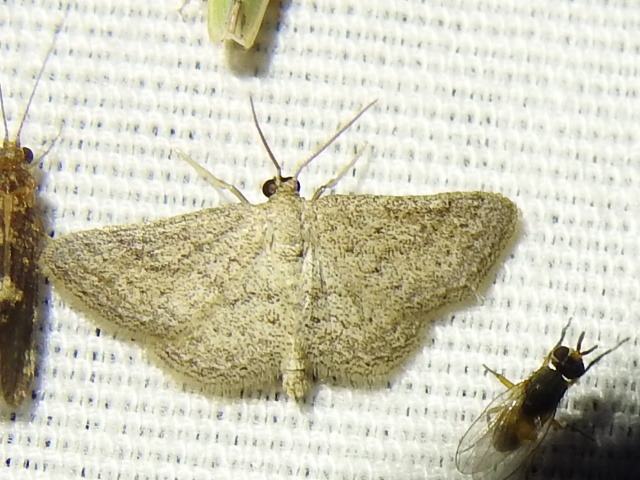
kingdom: Animalia
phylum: Arthropoda
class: Insecta
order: Lepidoptera
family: Geometridae
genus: Lobocleta
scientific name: Lobocleta ossularia
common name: Drab brown wave
